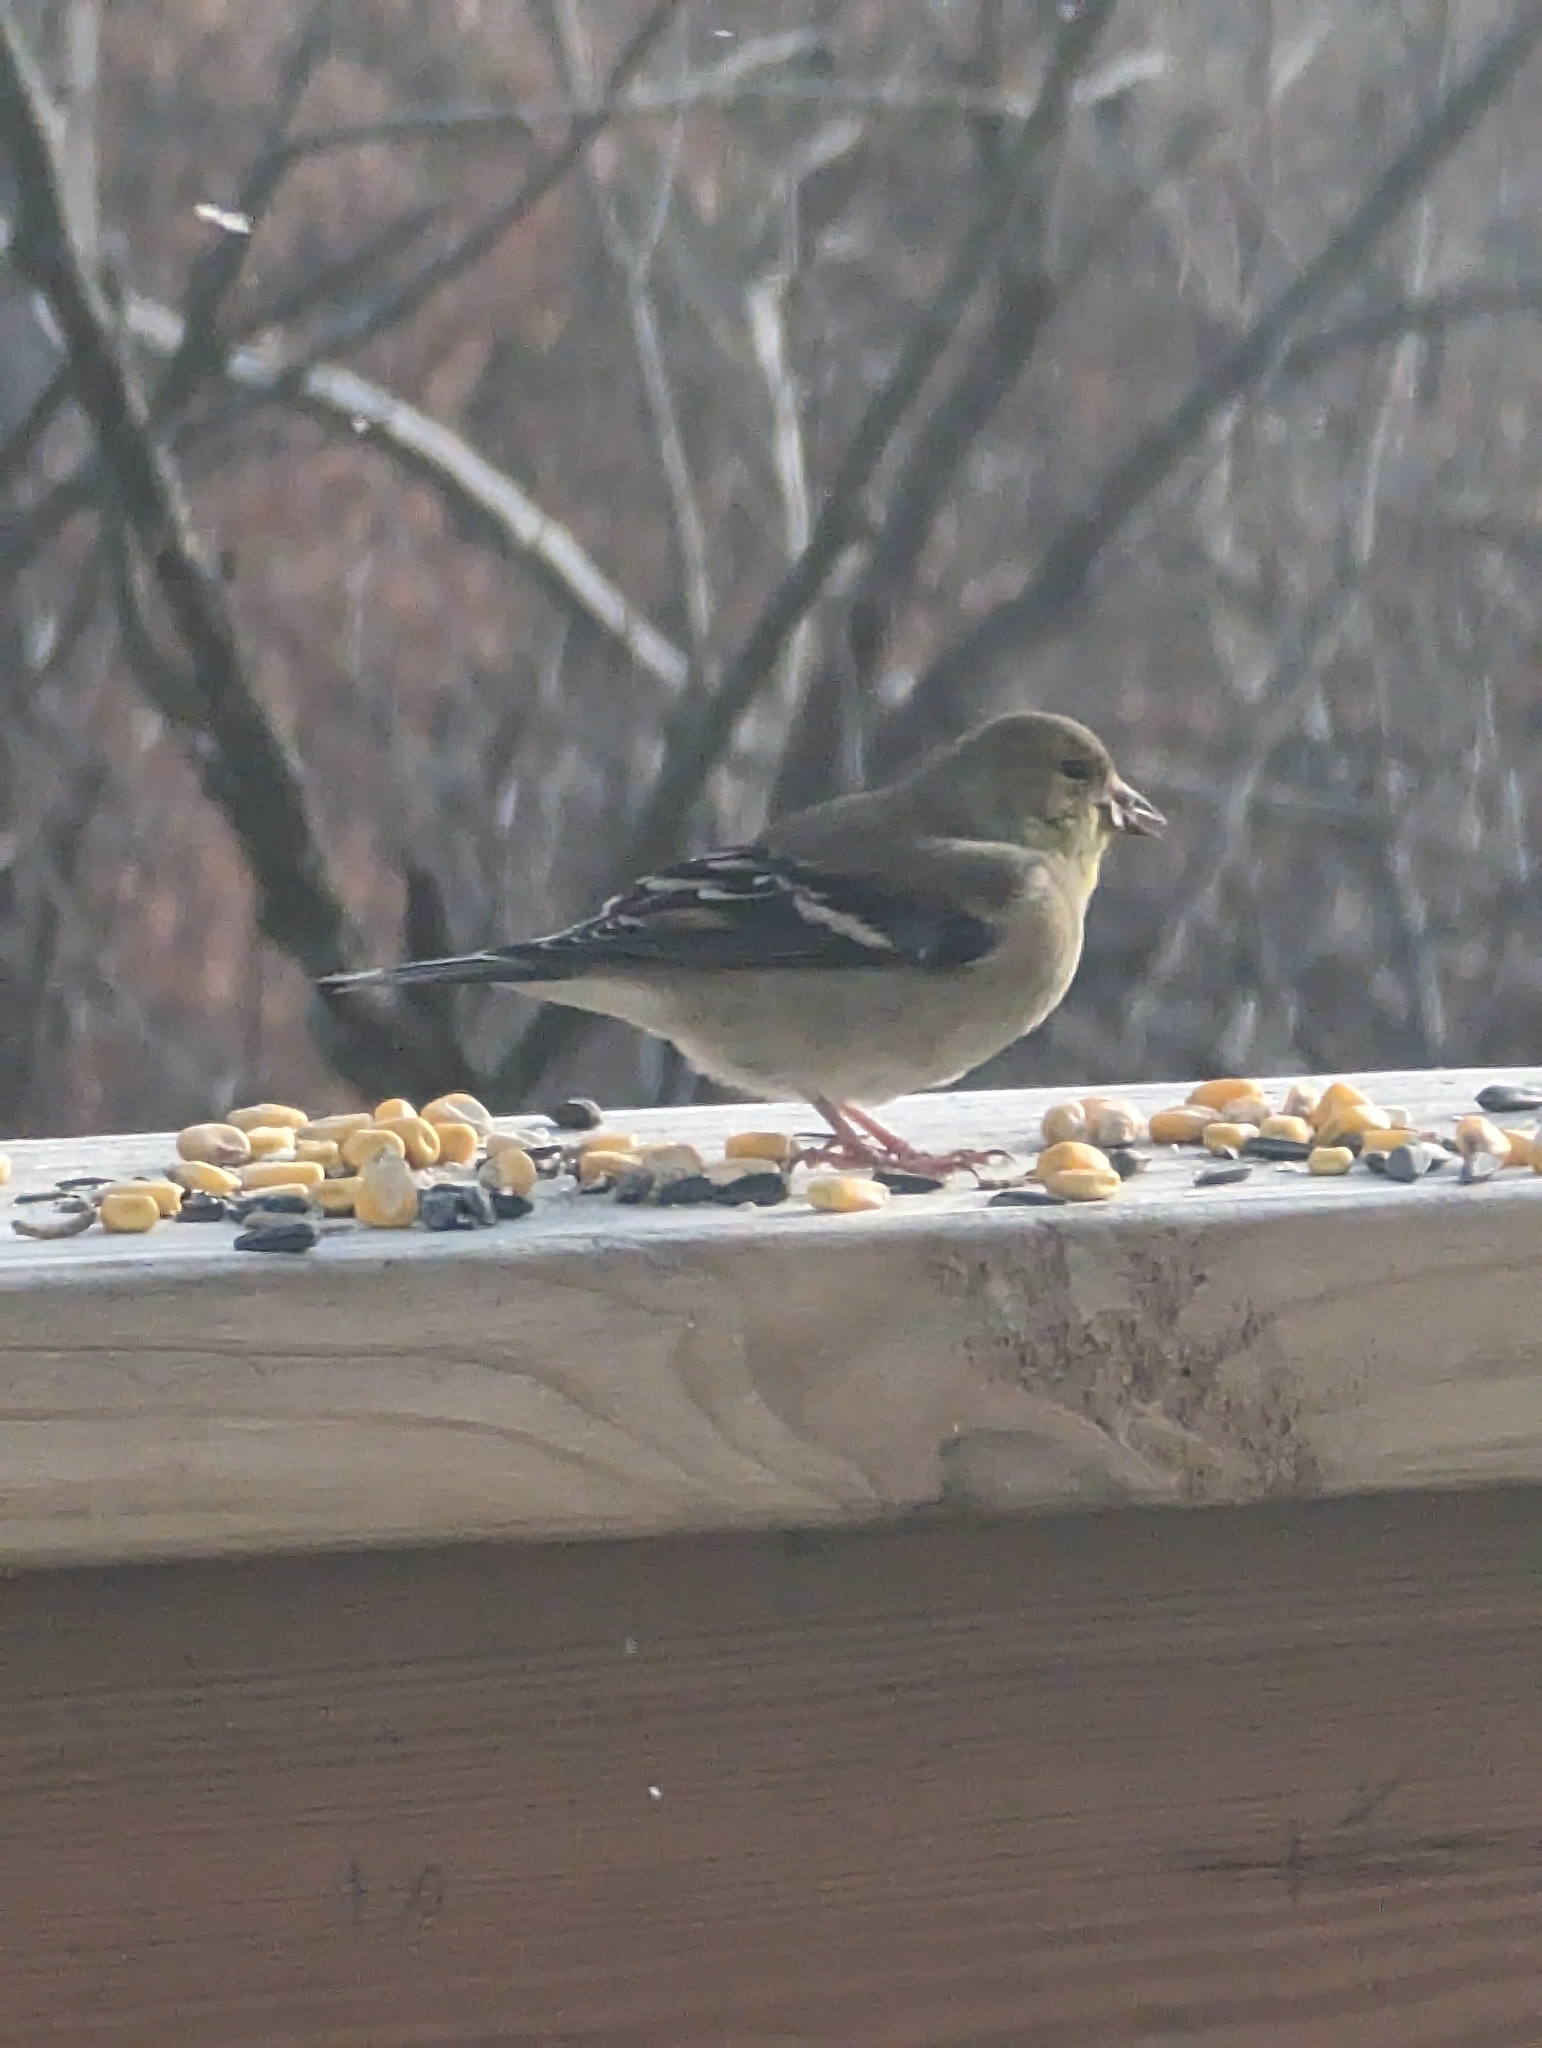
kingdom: Animalia
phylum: Chordata
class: Aves
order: Passeriformes
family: Fringillidae
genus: Spinus
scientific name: Spinus tristis
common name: American goldfinch
